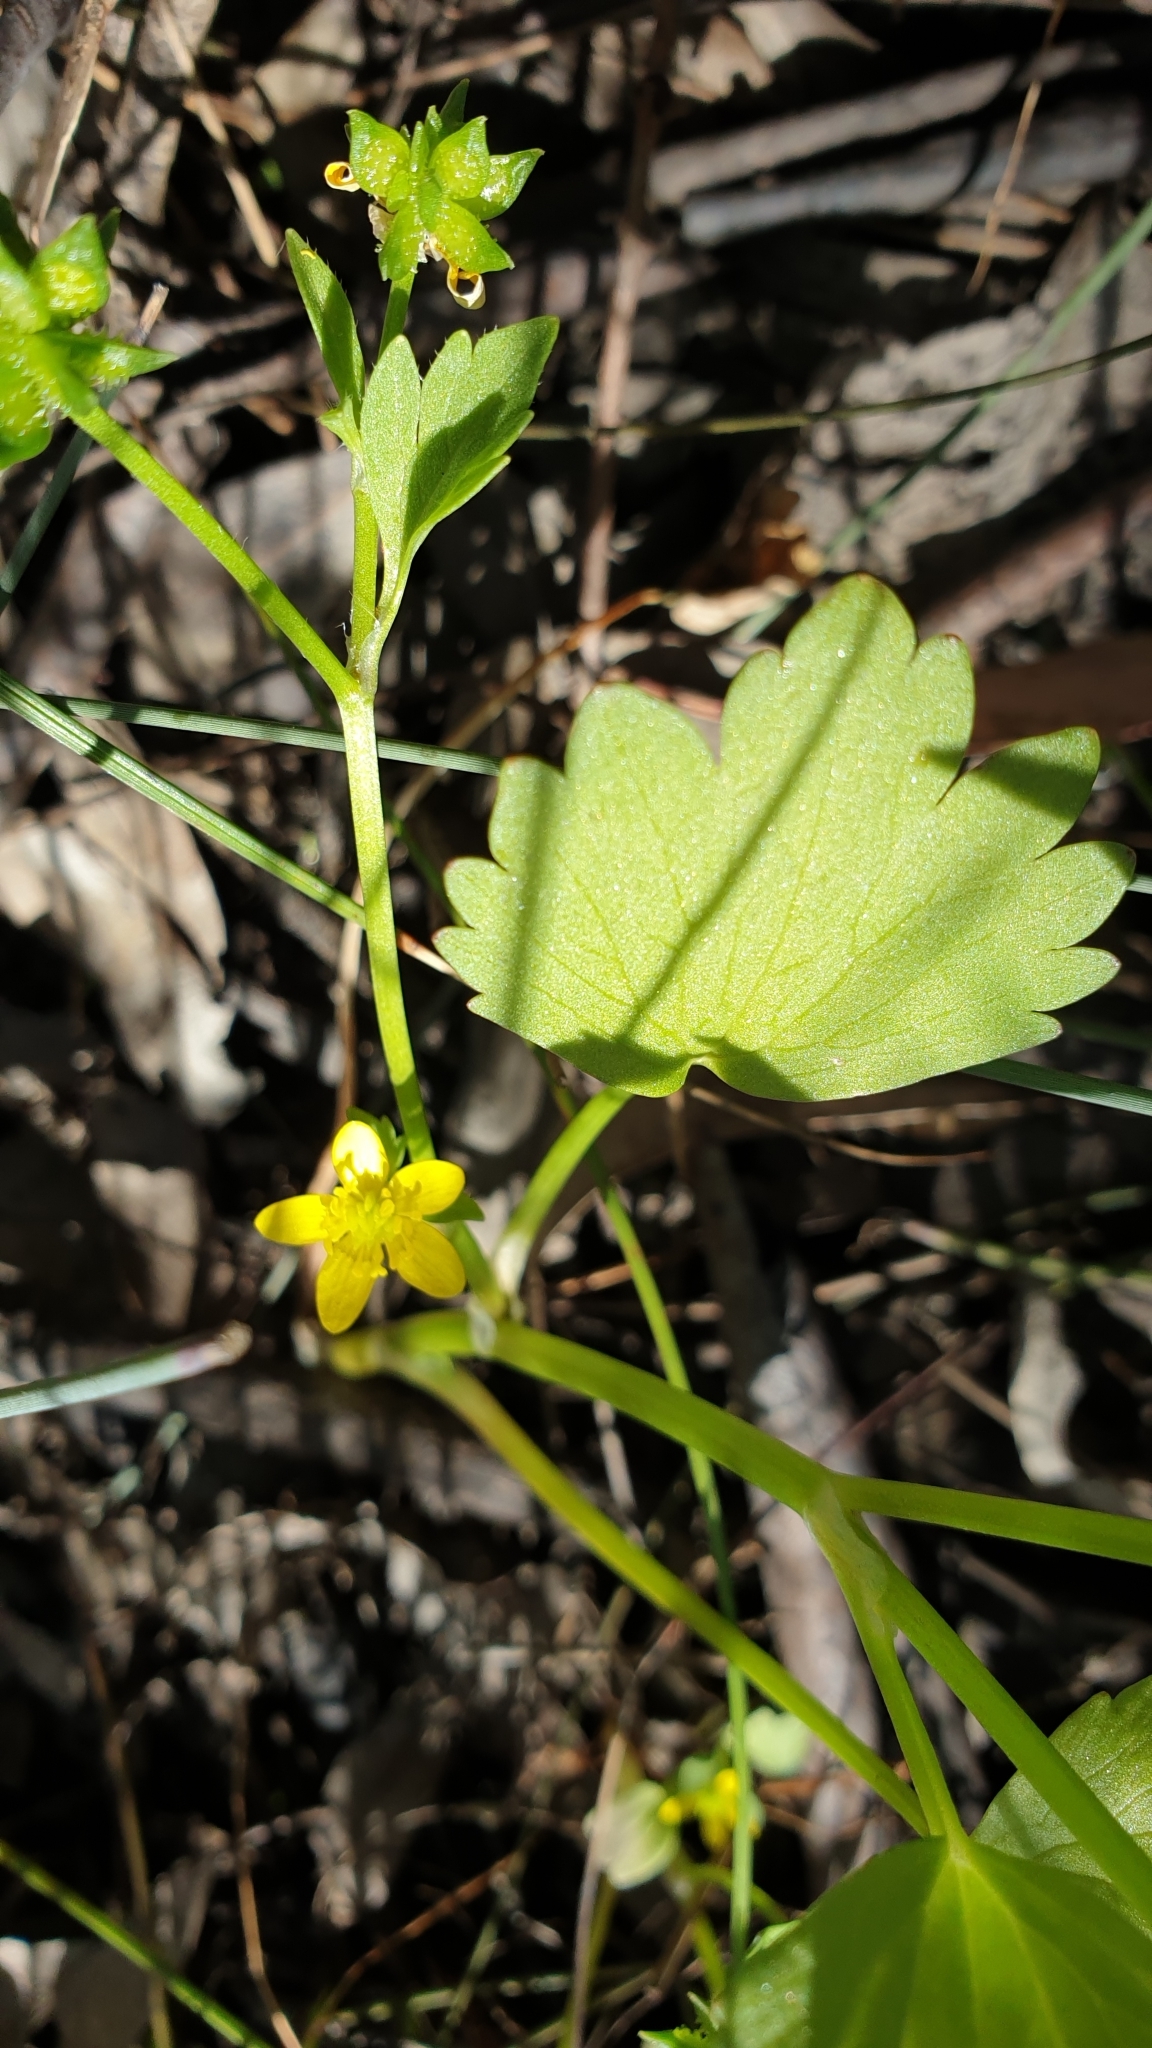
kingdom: Plantae
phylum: Tracheophyta
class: Magnoliopsida
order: Ranunculales
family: Ranunculaceae
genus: Ranunculus
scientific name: Ranunculus lappaceus
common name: Australian buttercup
